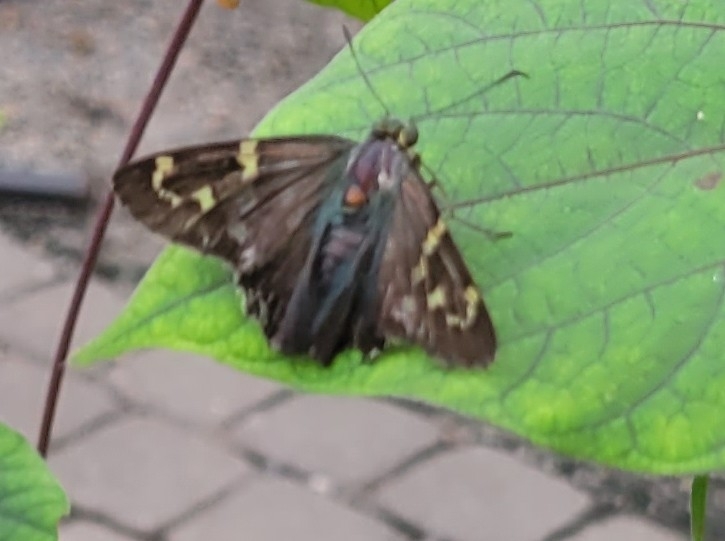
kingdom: Animalia
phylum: Arthropoda
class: Insecta
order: Lepidoptera
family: Hesperiidae
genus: Urbanus
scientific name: Urbanus proteus
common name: Long-tailed skipper
